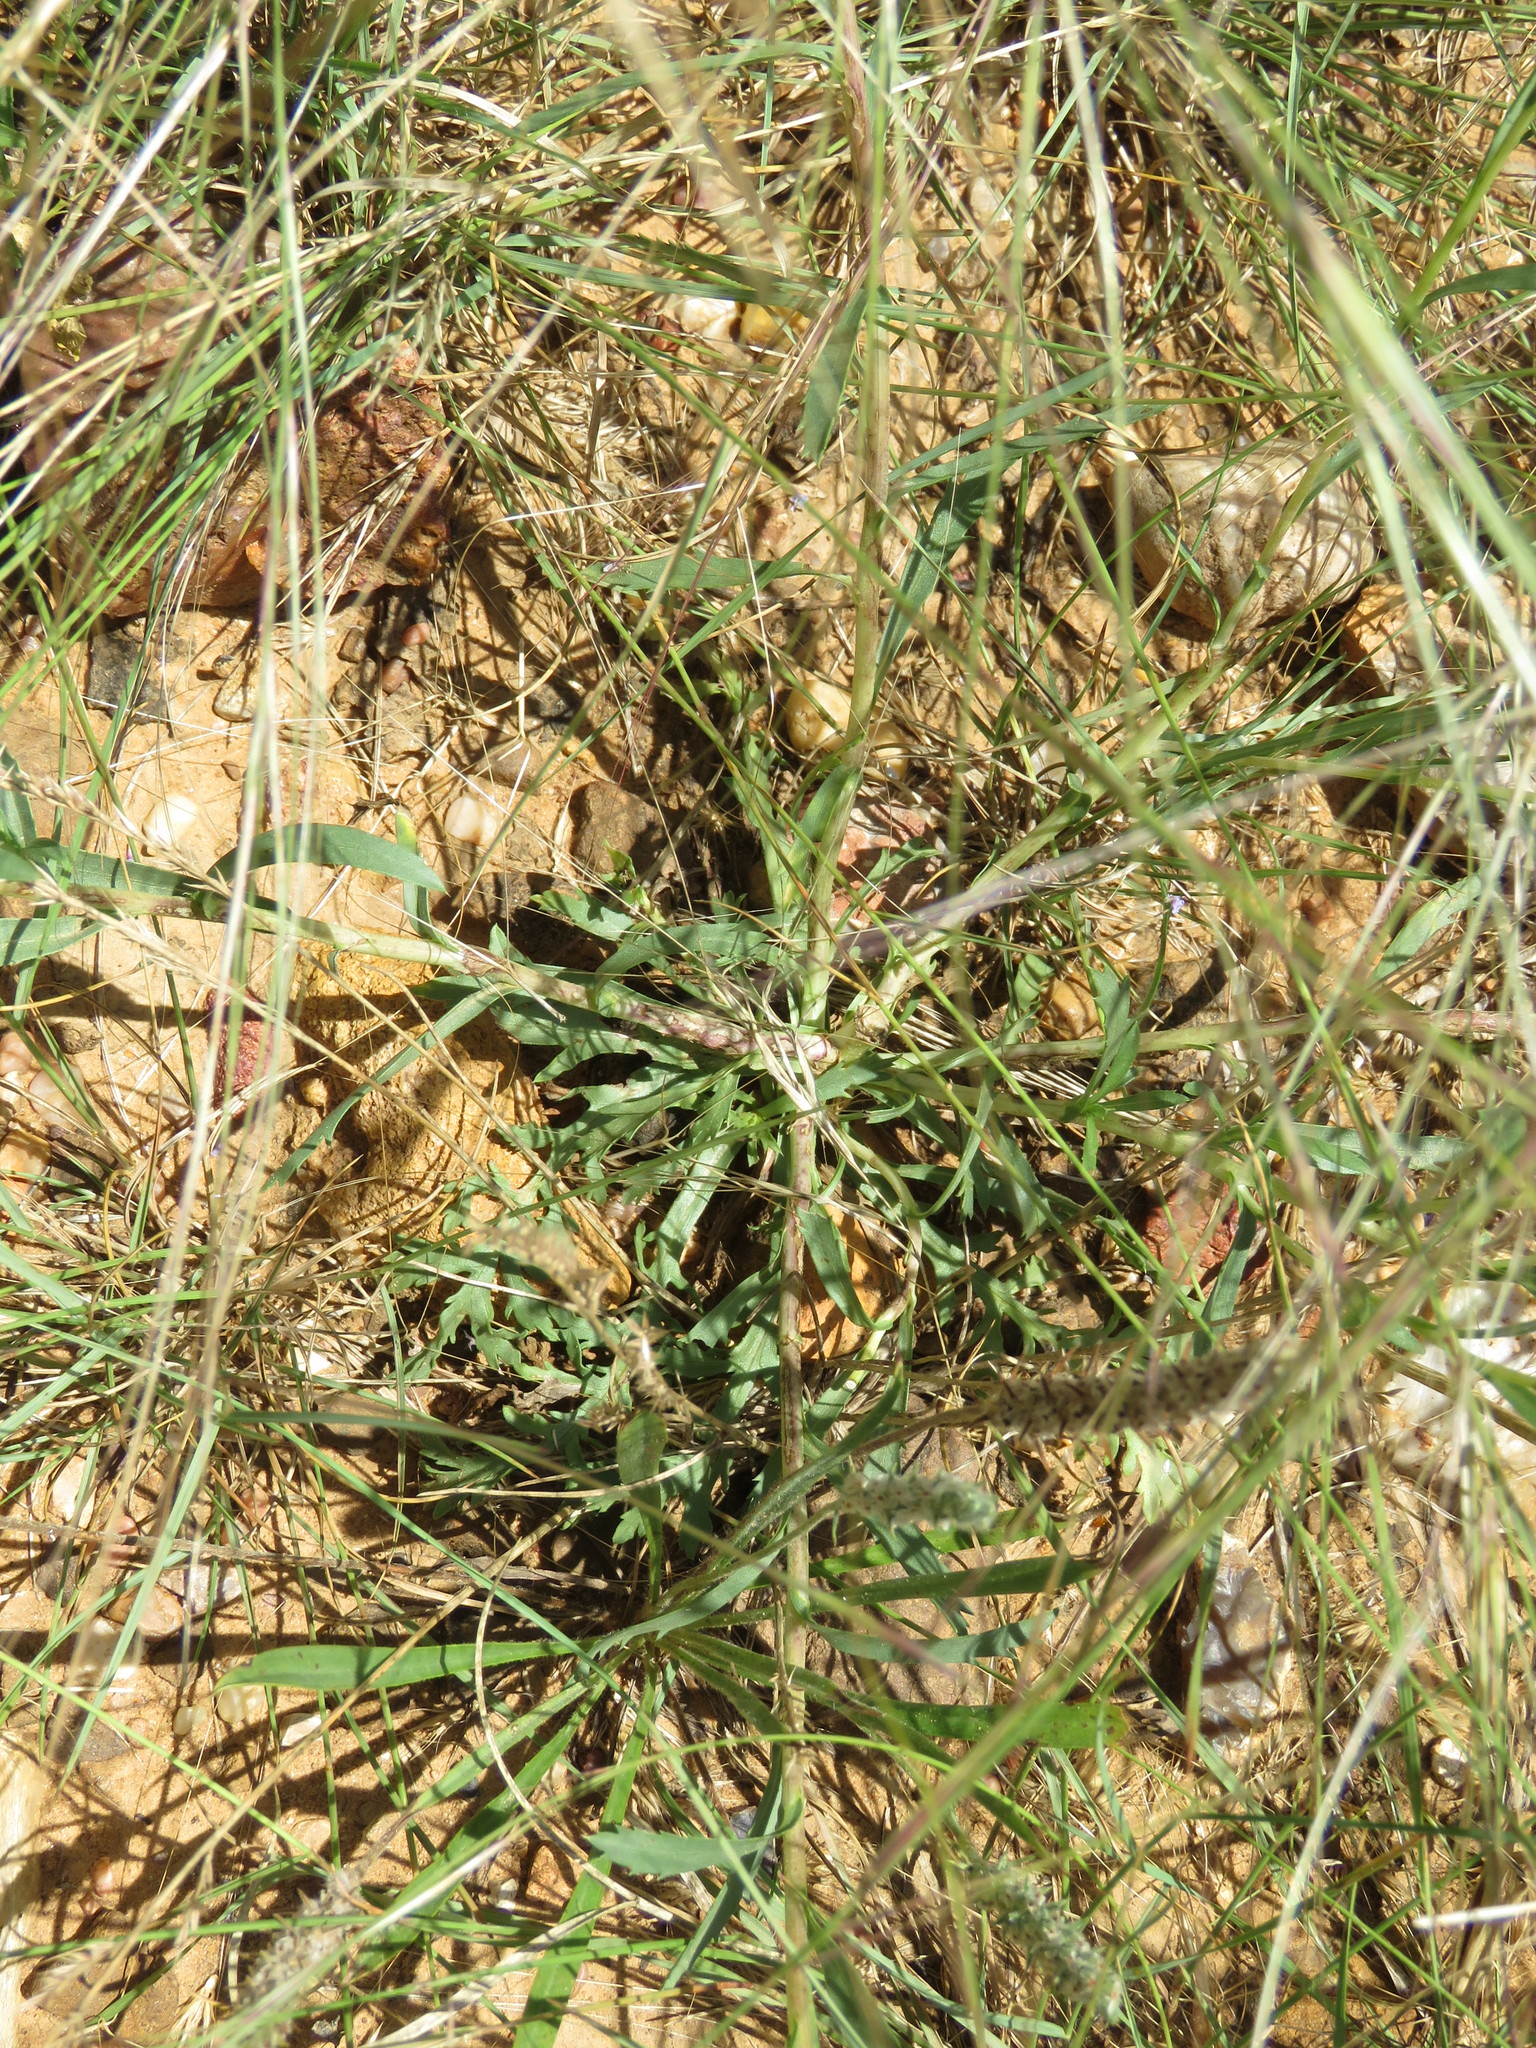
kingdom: Plantae
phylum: Tracheophyta
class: Magnoliopsida
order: Asterales
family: Asteraceae
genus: Xanthisma
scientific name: Xanthisma texanum
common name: Texas sleepy daisy
